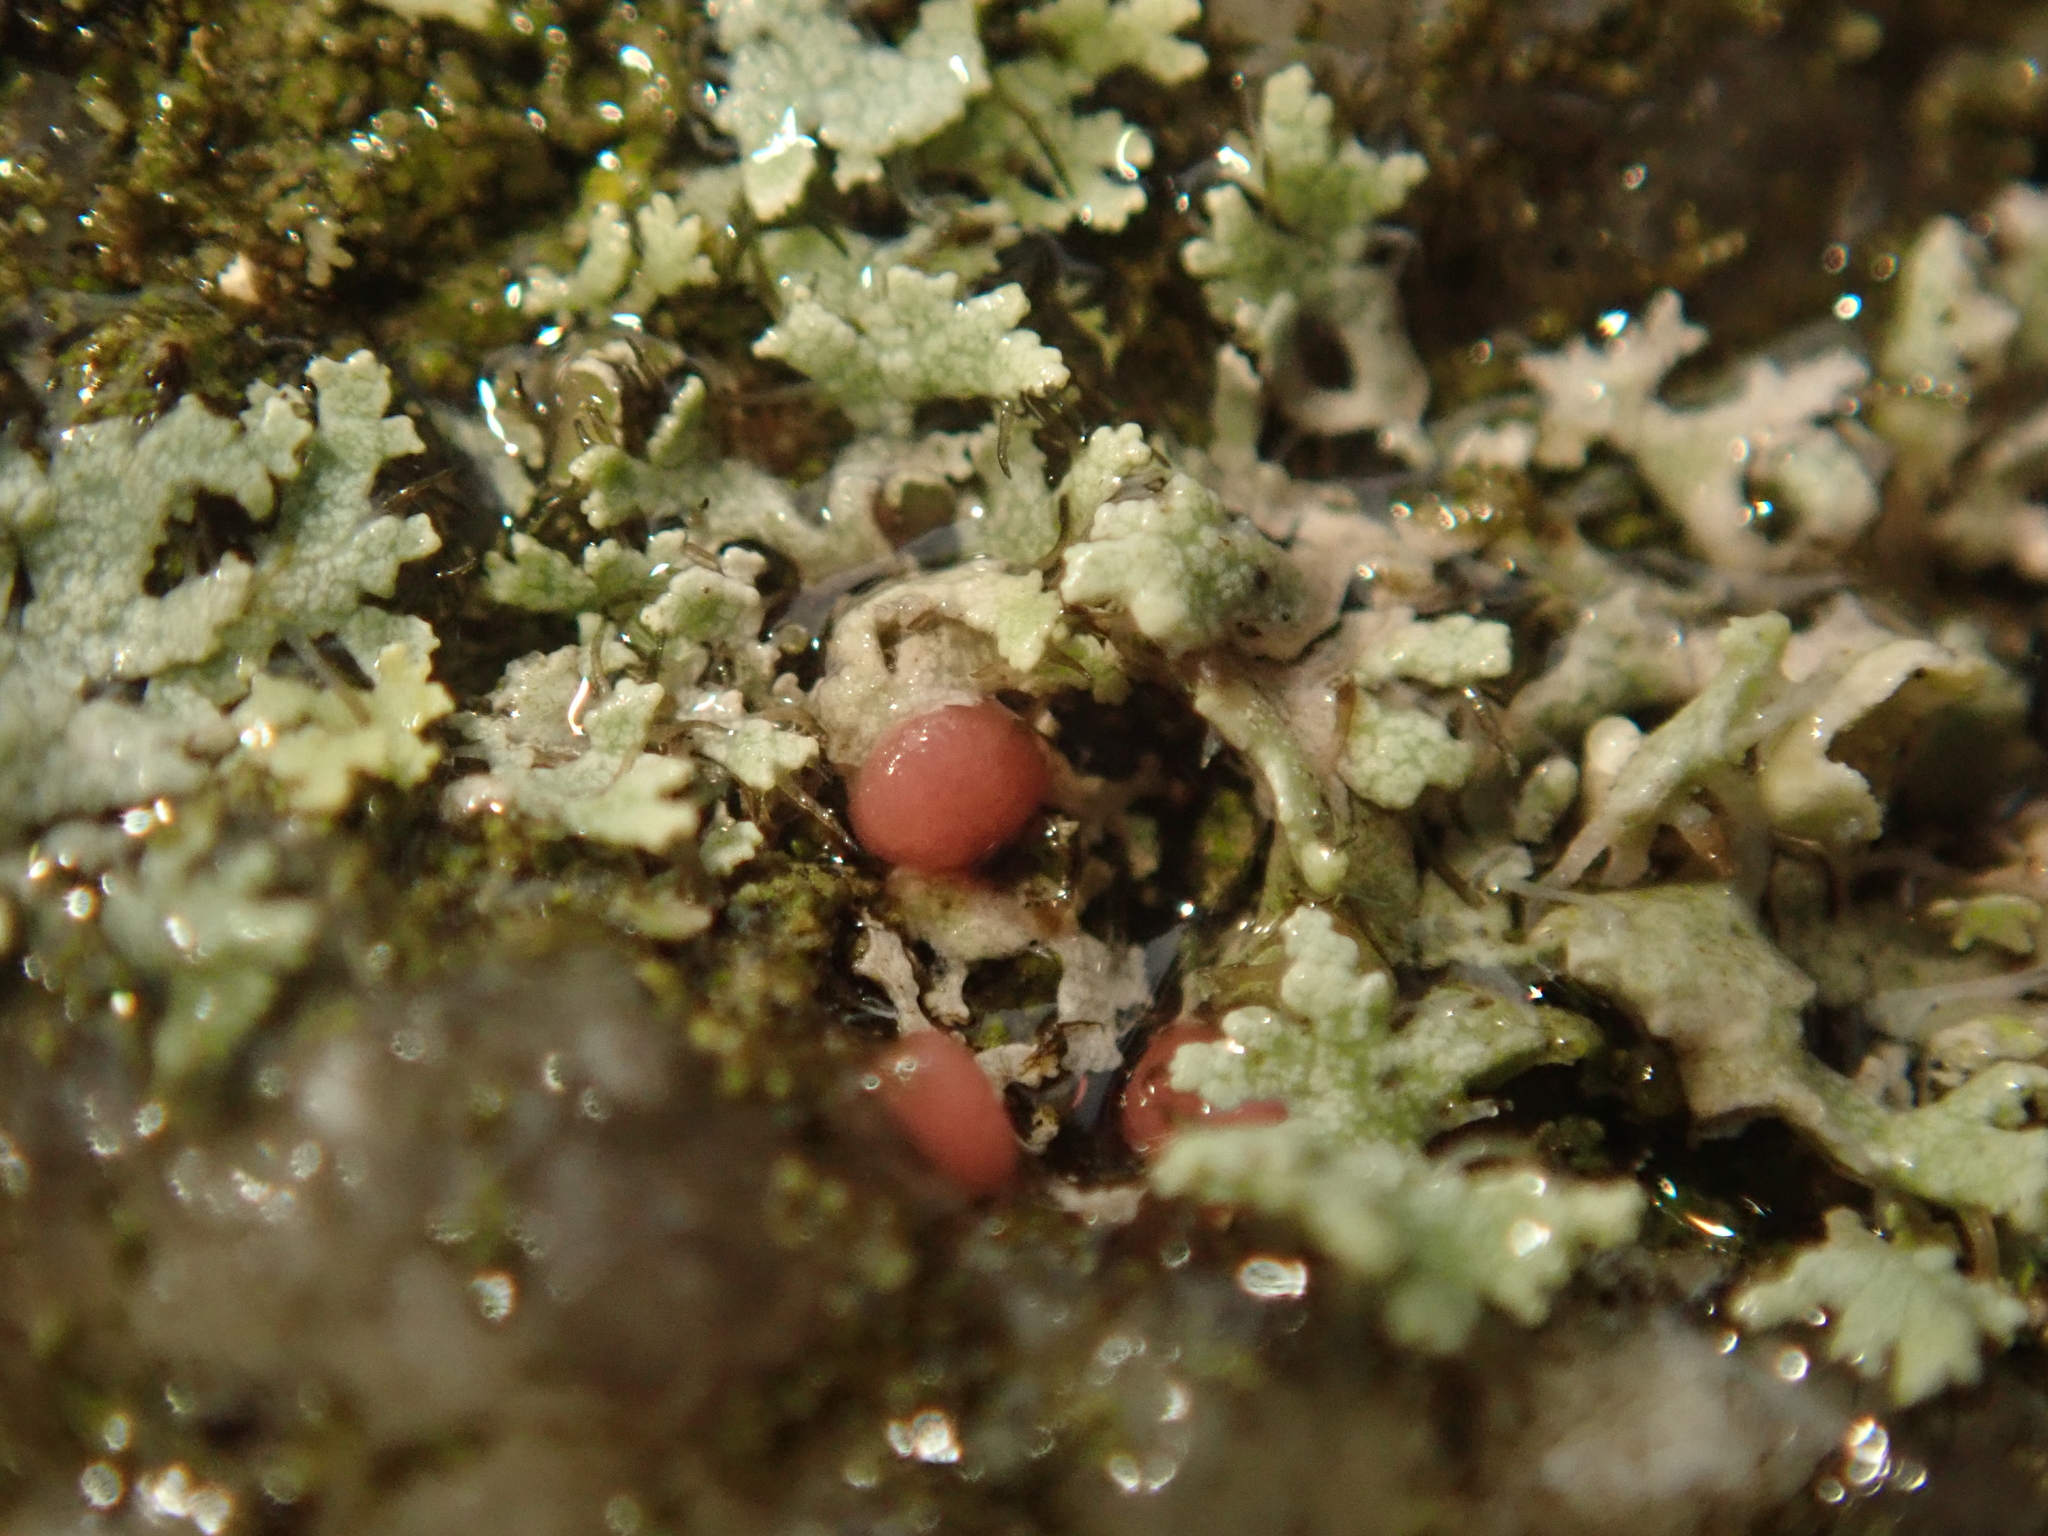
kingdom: Fungi
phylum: Ascomycota
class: Sordariomycetes
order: Hypocreales
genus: Illosporiopsis
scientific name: Illosporiopsis christiansenii
